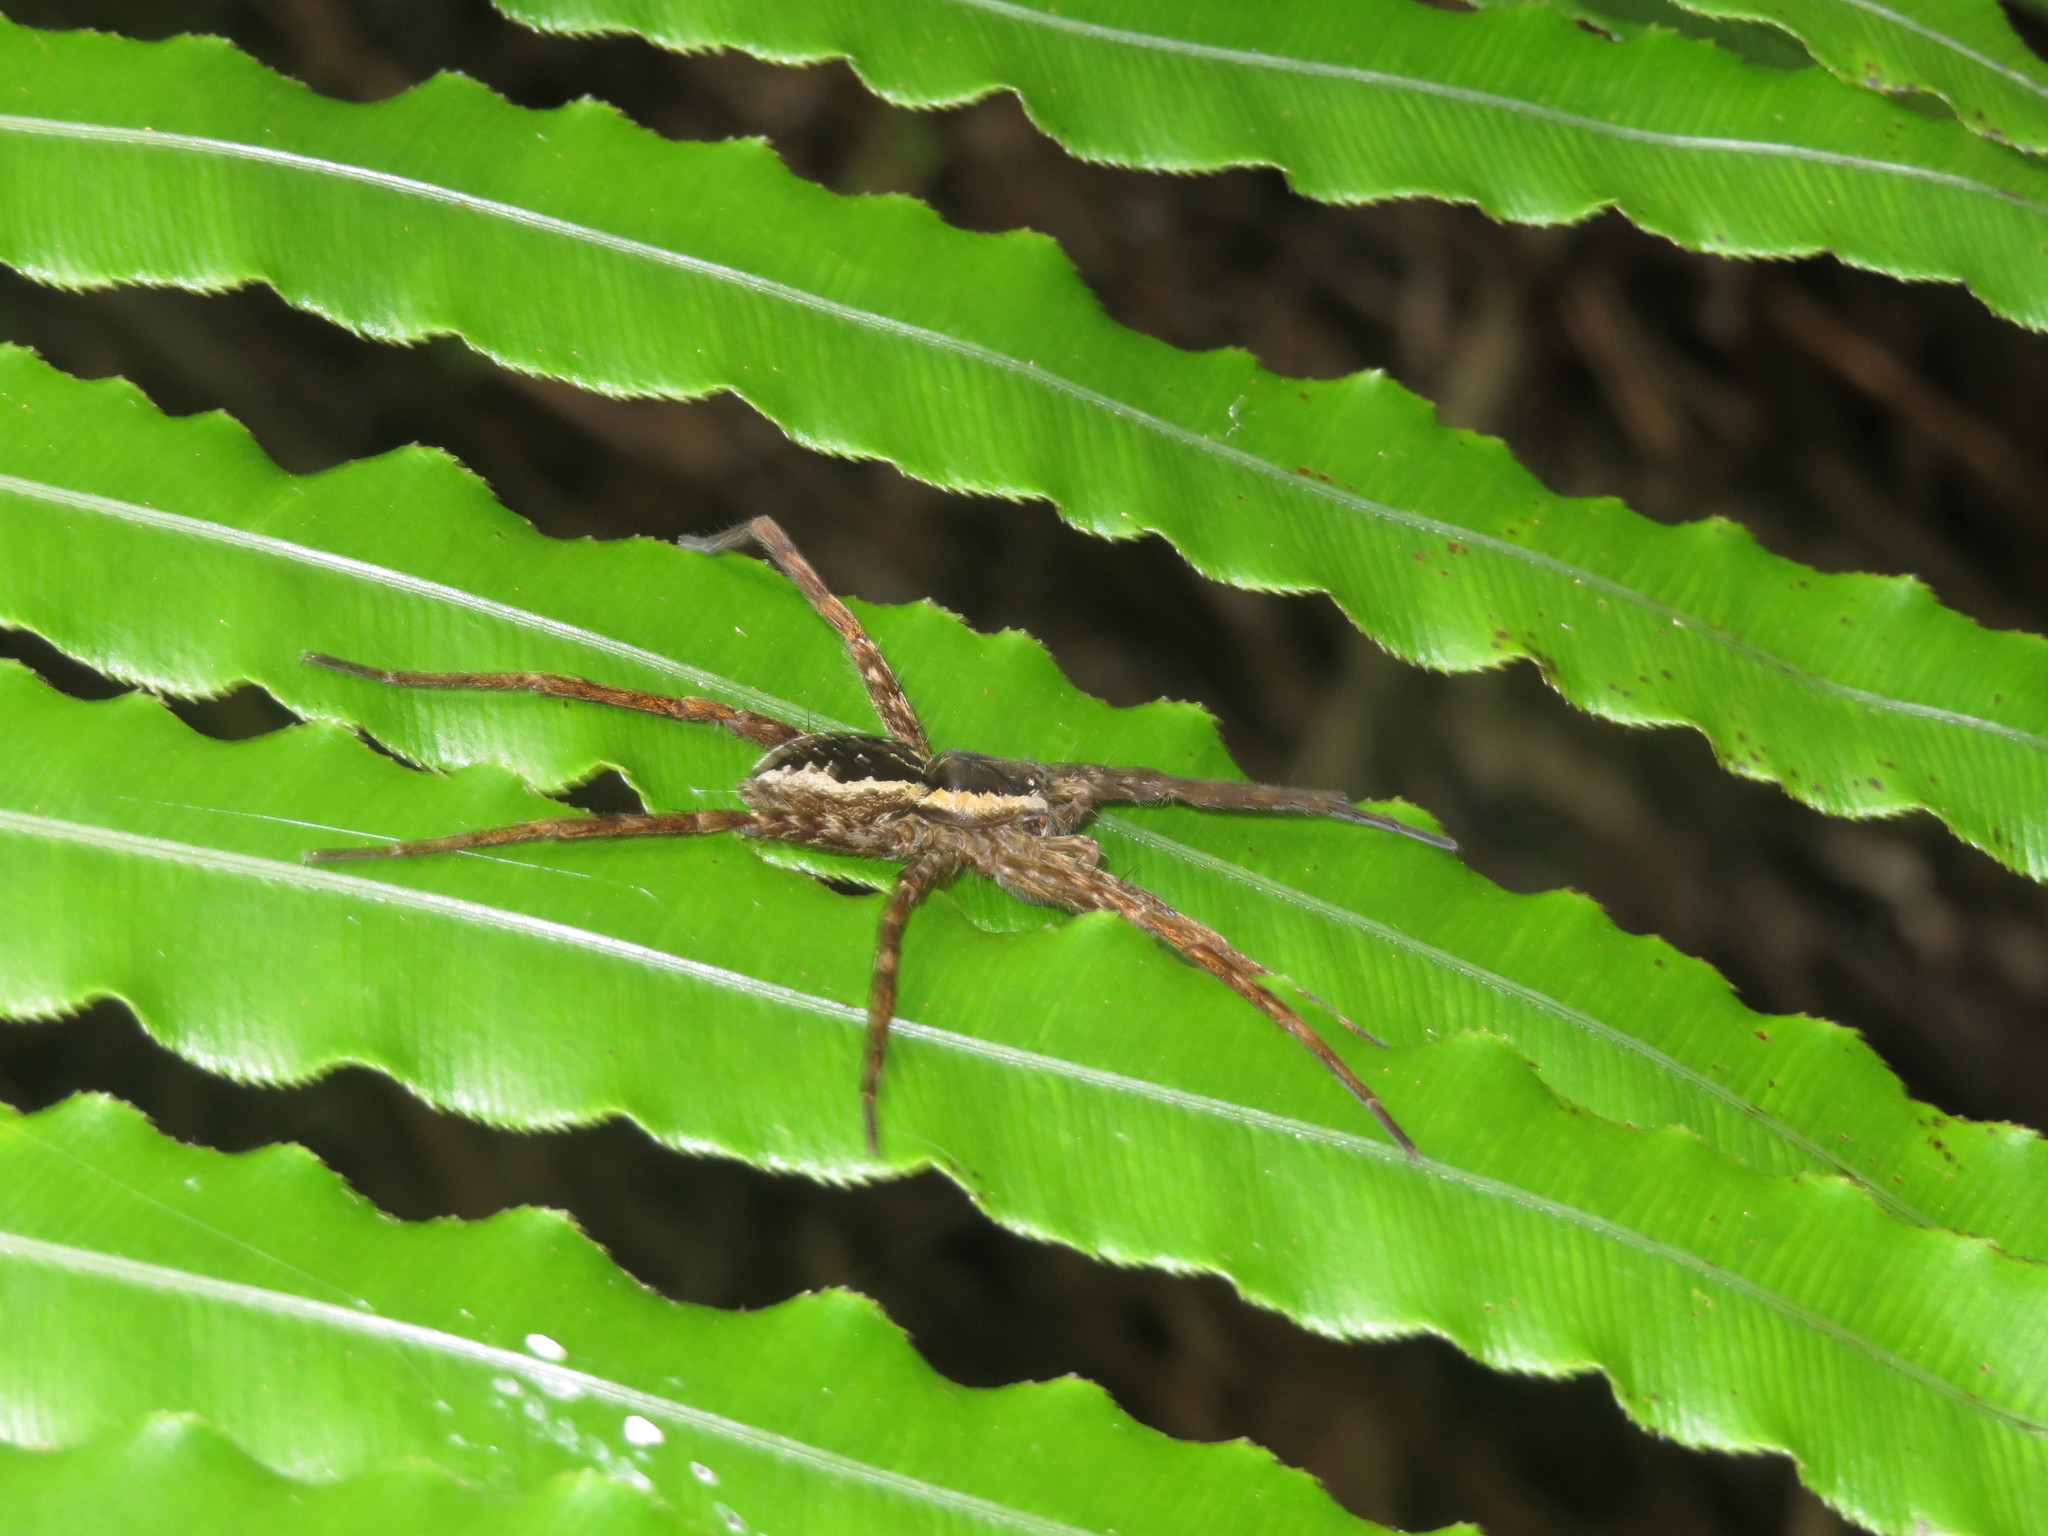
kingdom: Animalia
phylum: Arthropoda
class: Arachnida
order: Araneae
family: Pisauridae
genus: Dolomedes
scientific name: Dolomedes dondalei
